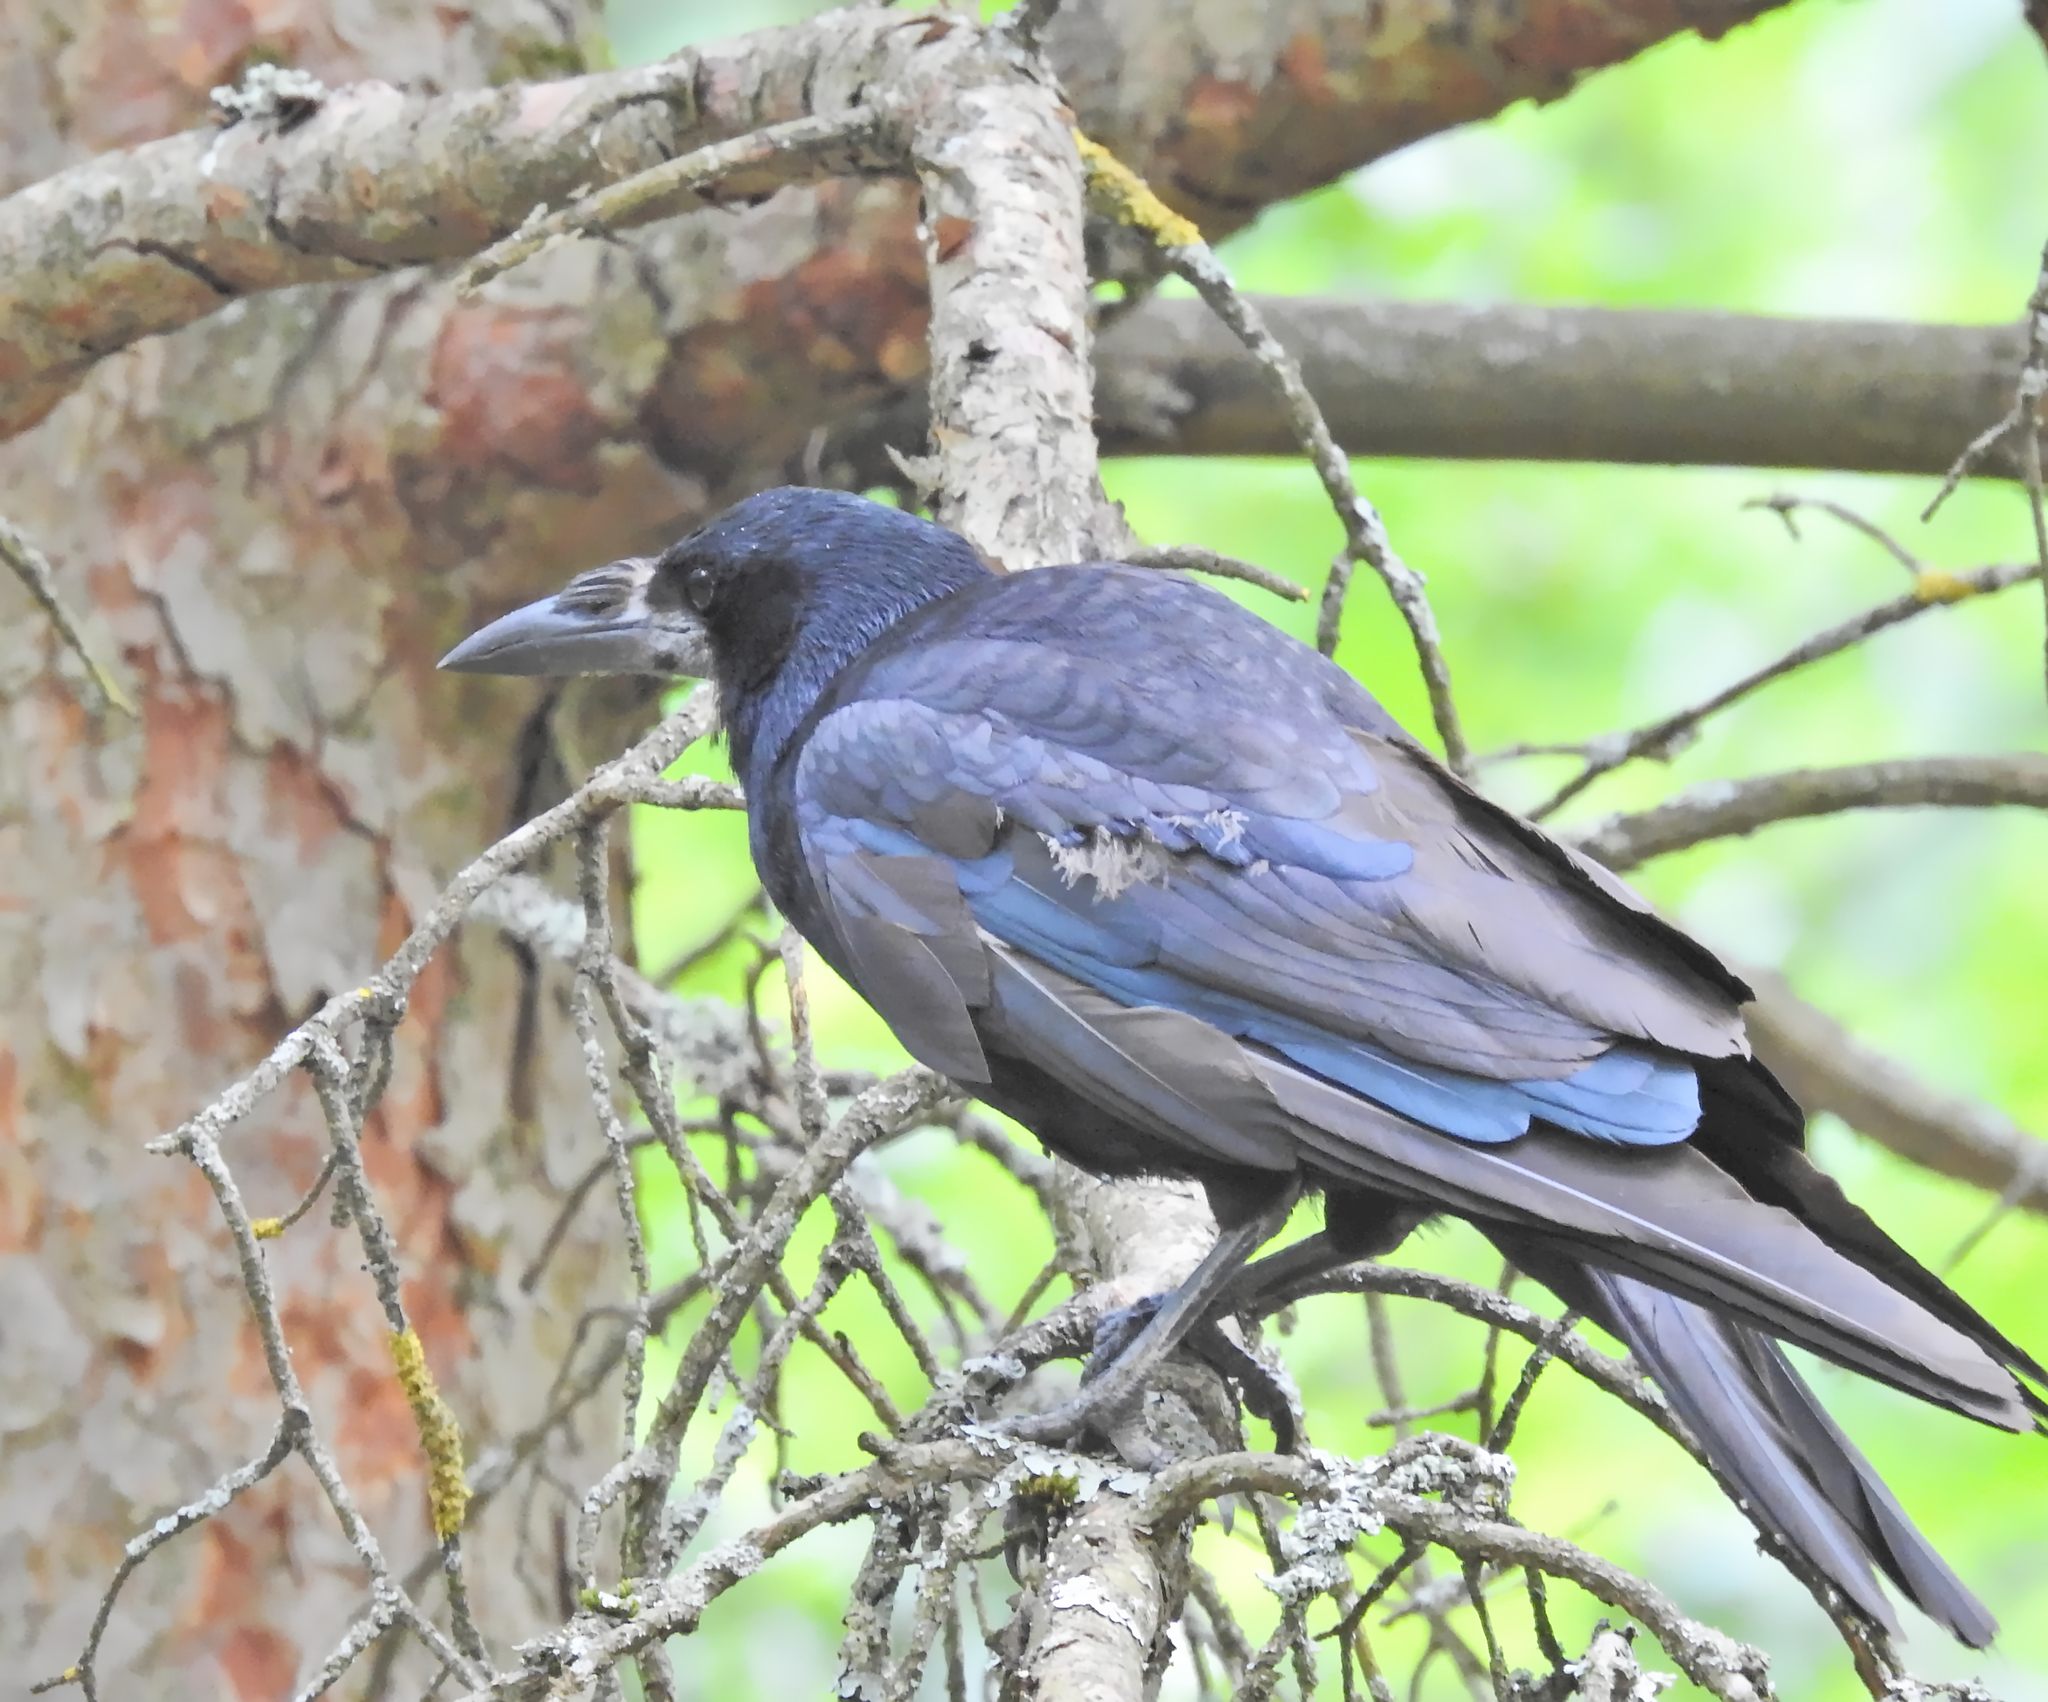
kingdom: Animalia
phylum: Chordata
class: Aves
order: Passeriformes
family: Corvidae
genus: Corvus
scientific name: Corvus frugilegus
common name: Rook
